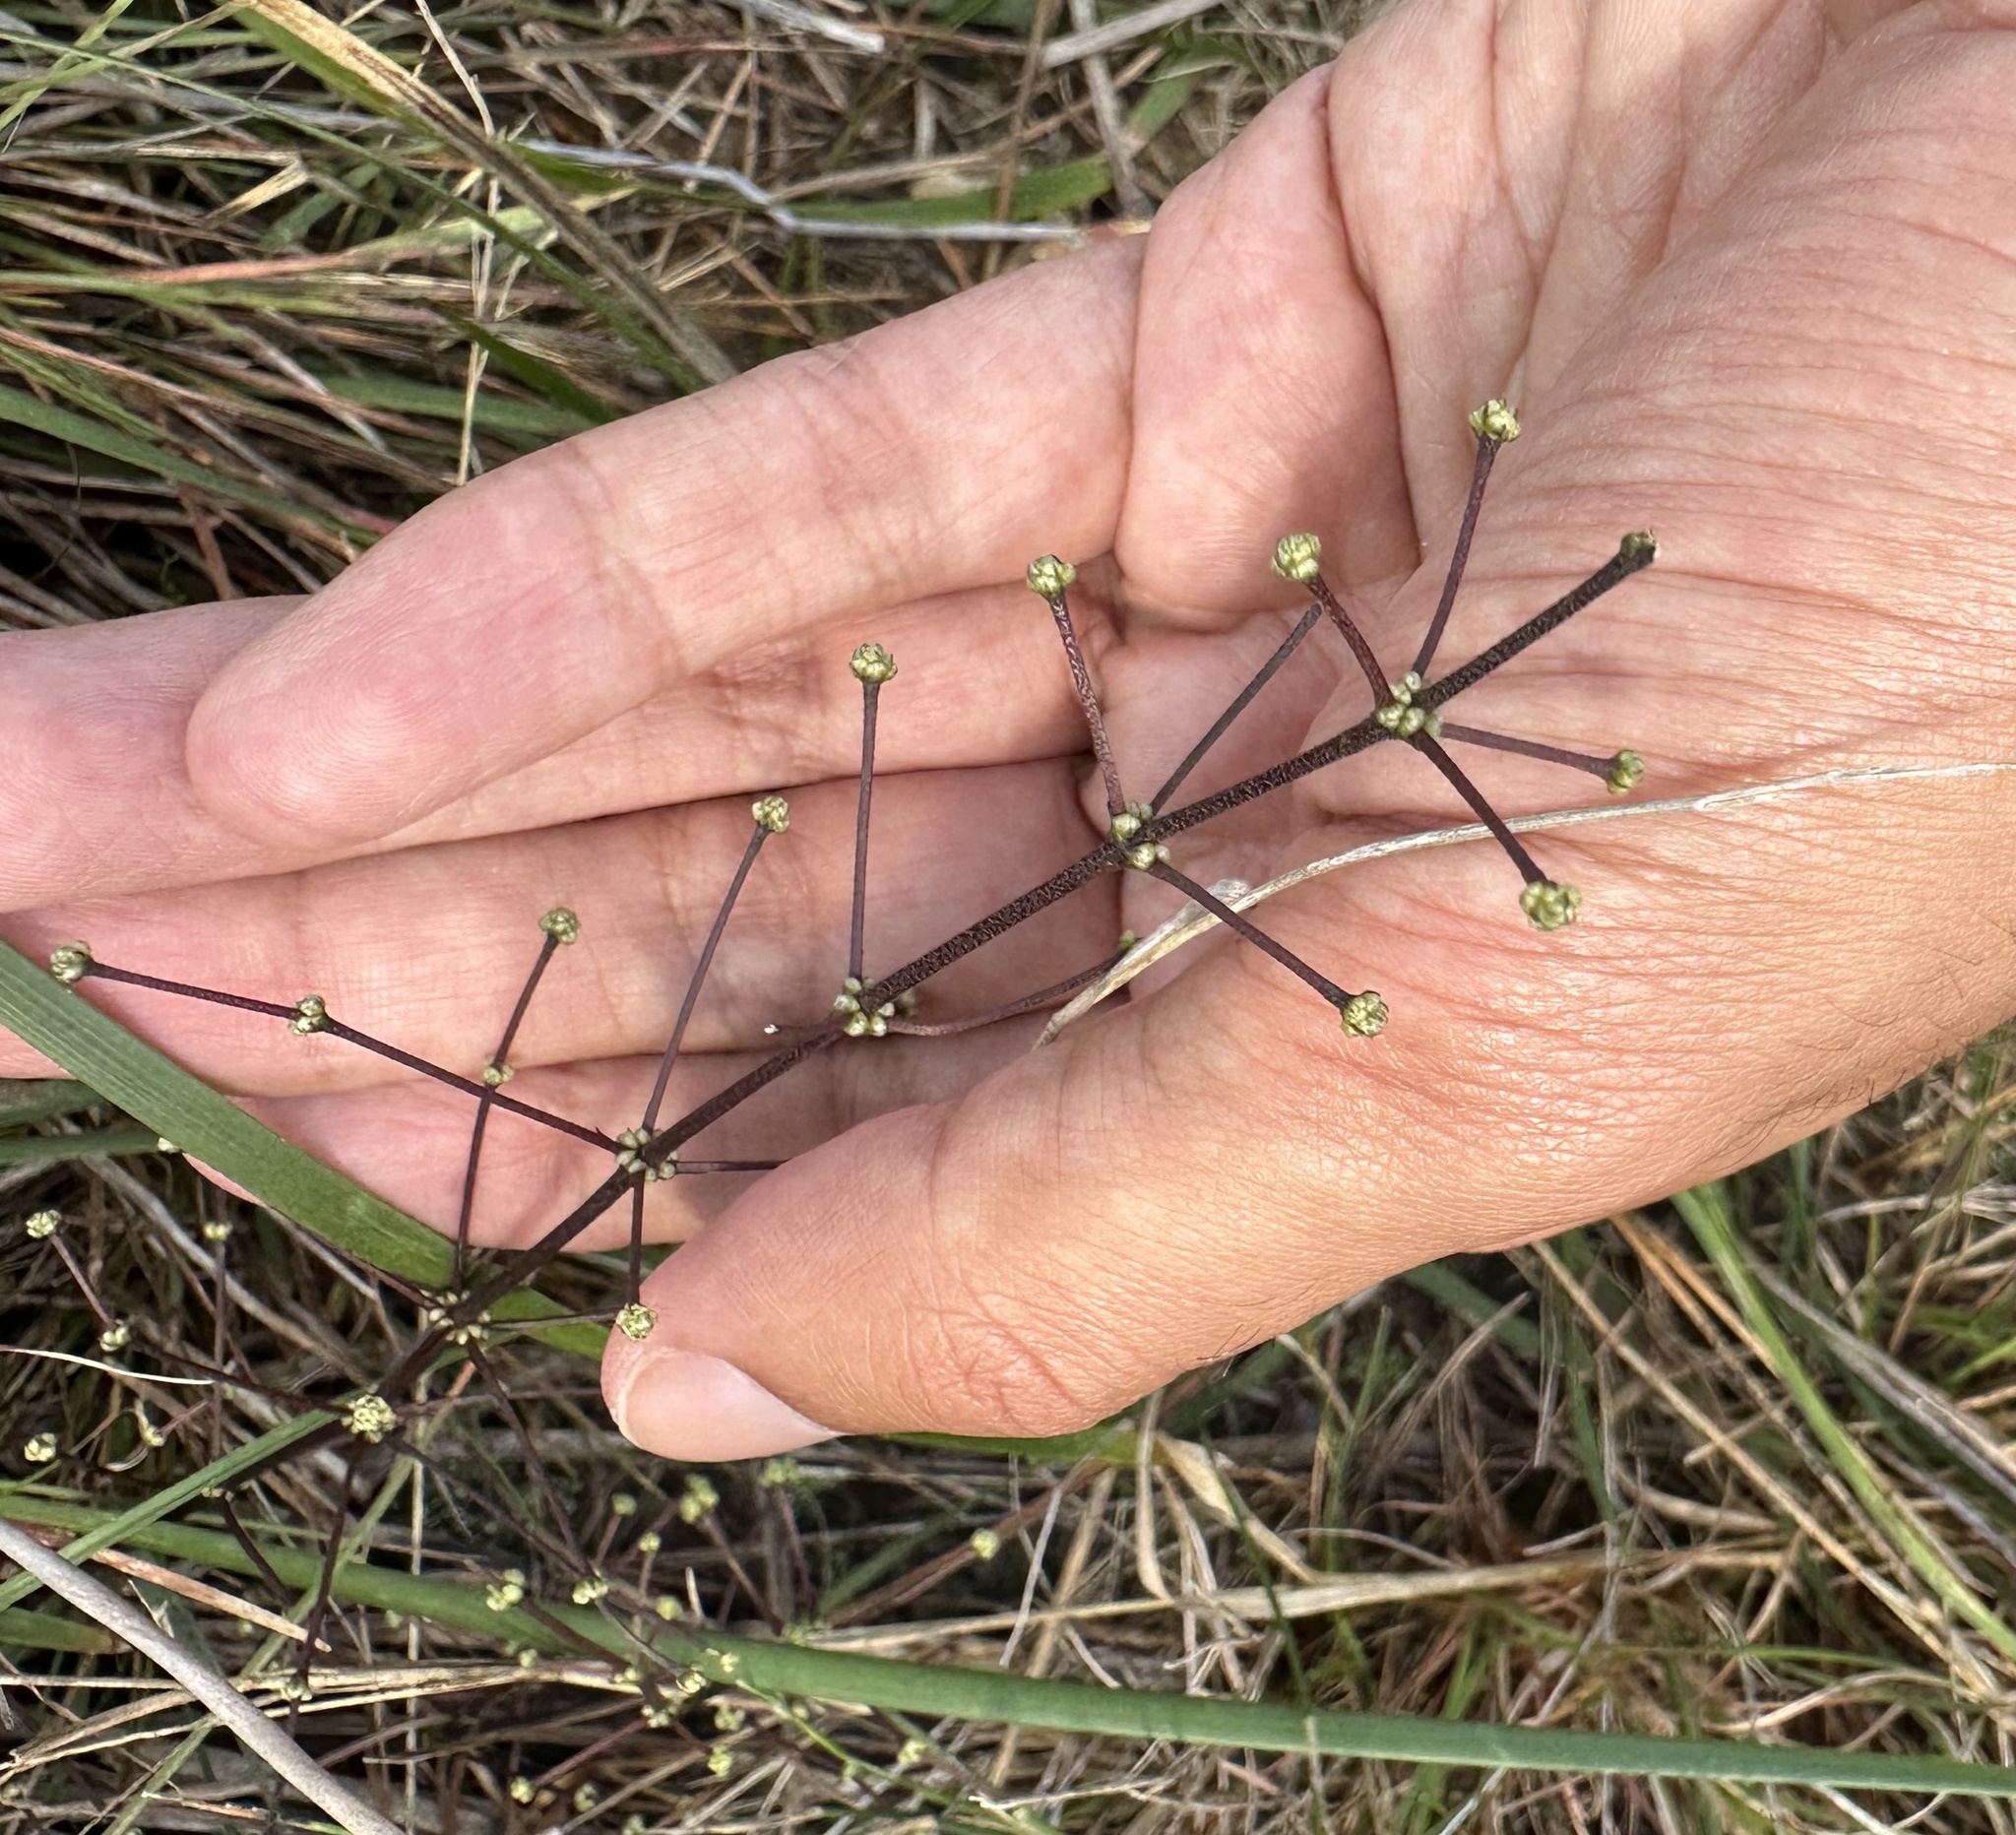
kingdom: Plantae
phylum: Tracheophyta
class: Liliopsida
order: Asparagales
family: Asparagaceae
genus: Lomandra
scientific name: Lomandra multiflora
